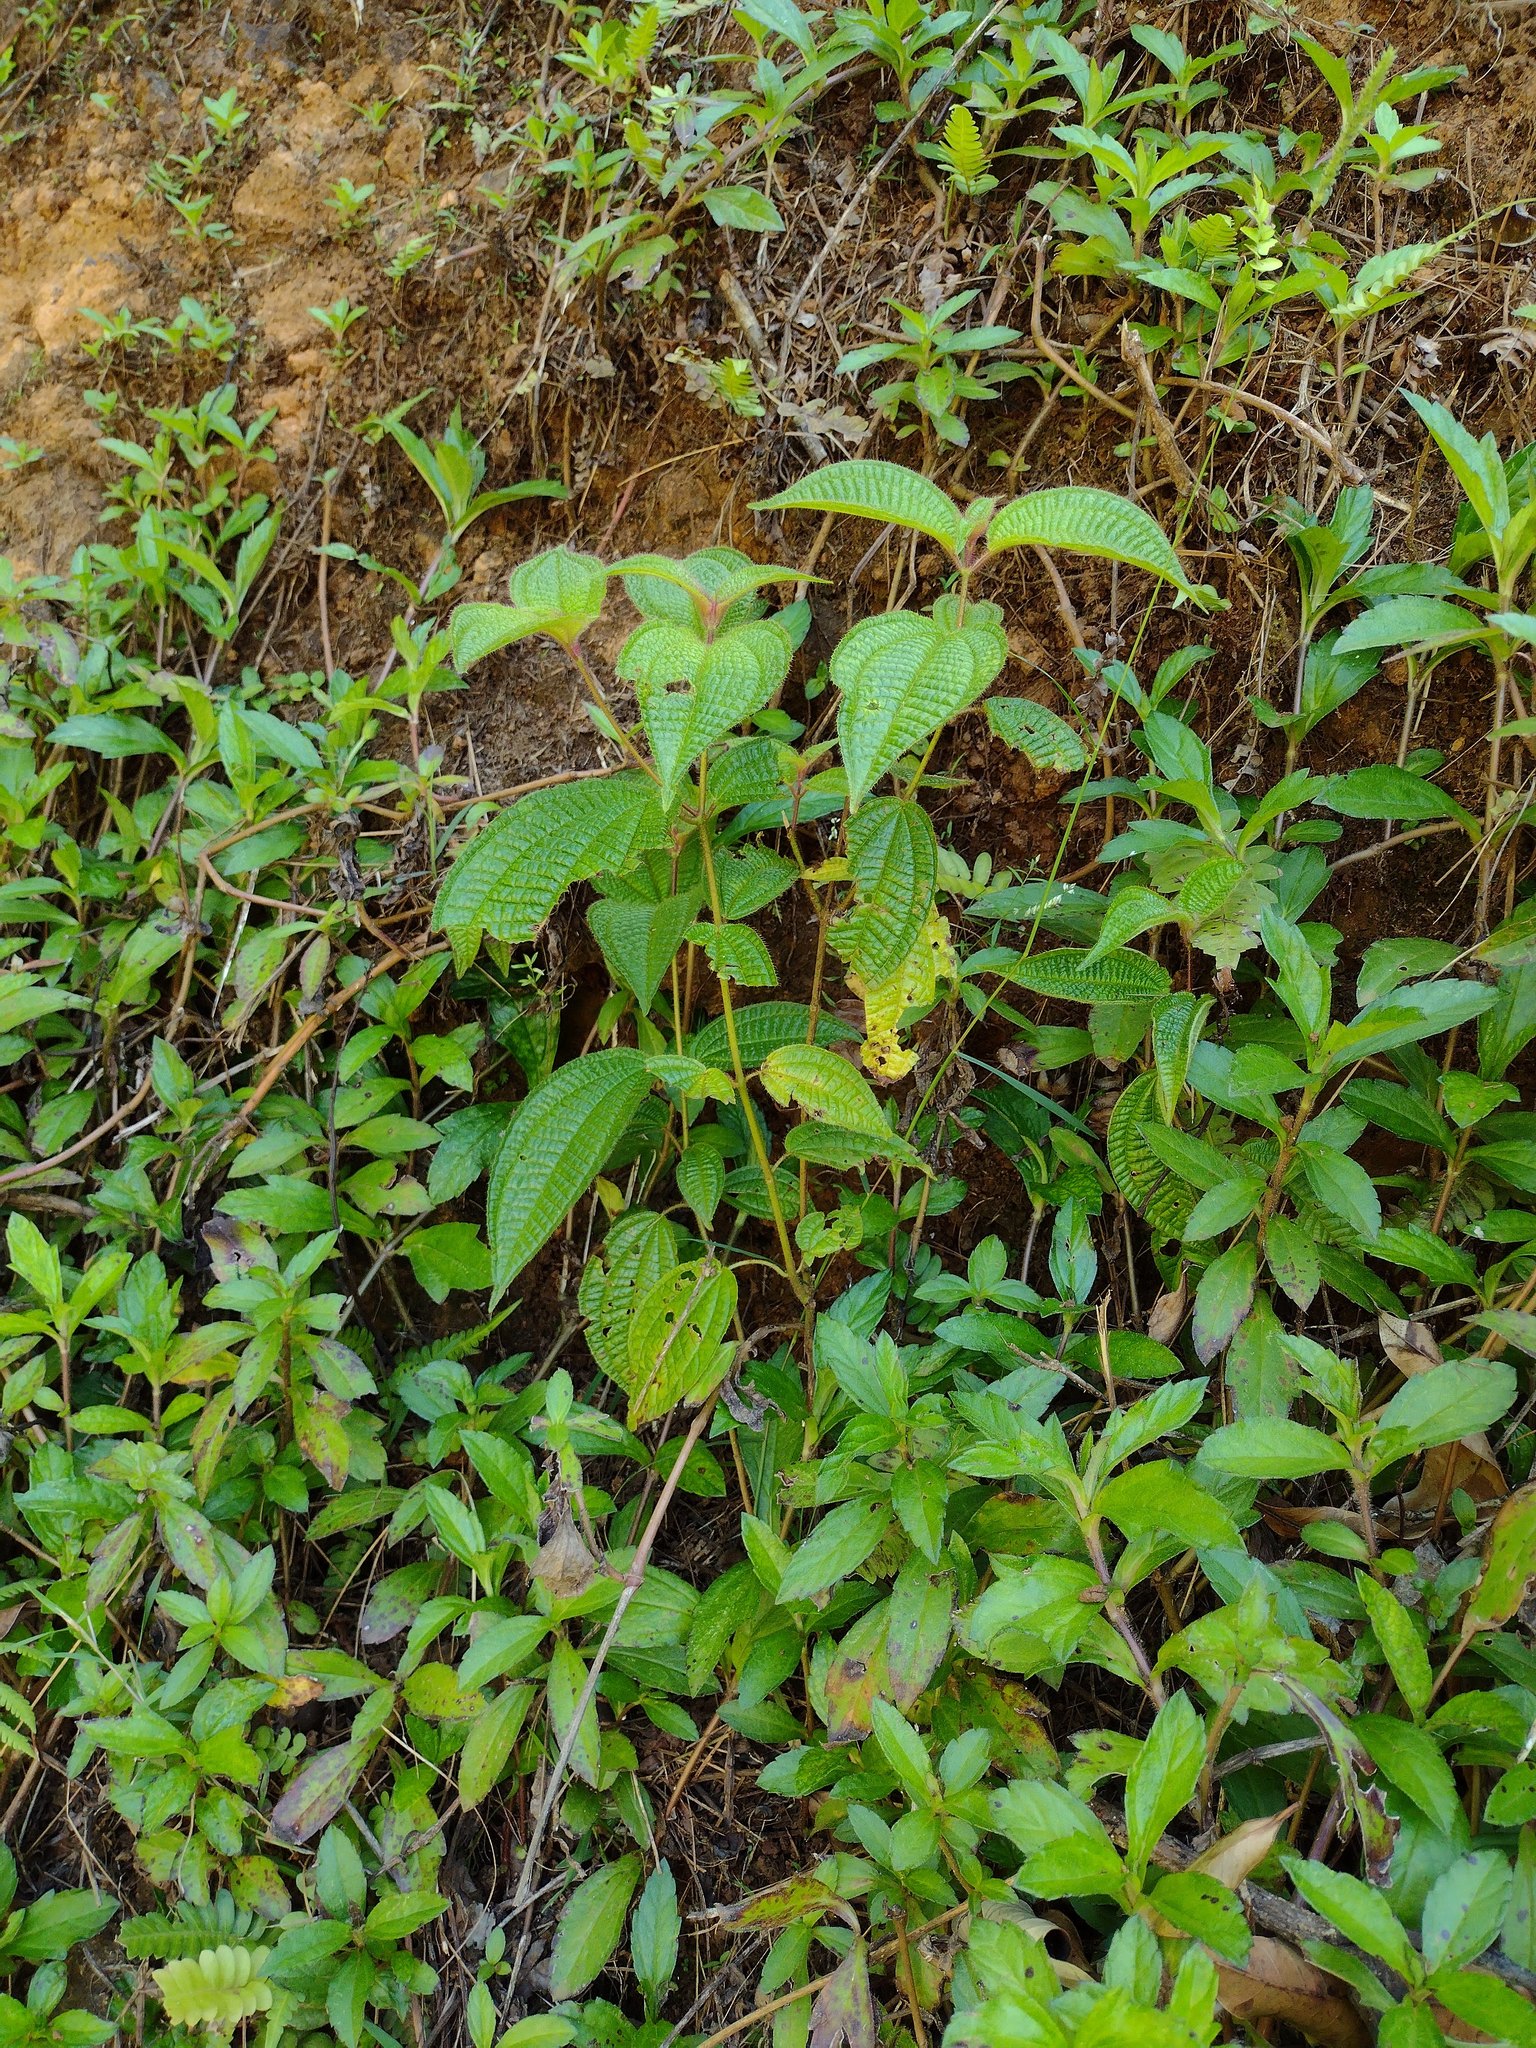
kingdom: Plantae
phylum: Tracheophyta
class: Magnoliopsida
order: Myrtales
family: Melastomataceae
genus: Miconia
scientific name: Miconia crenata
